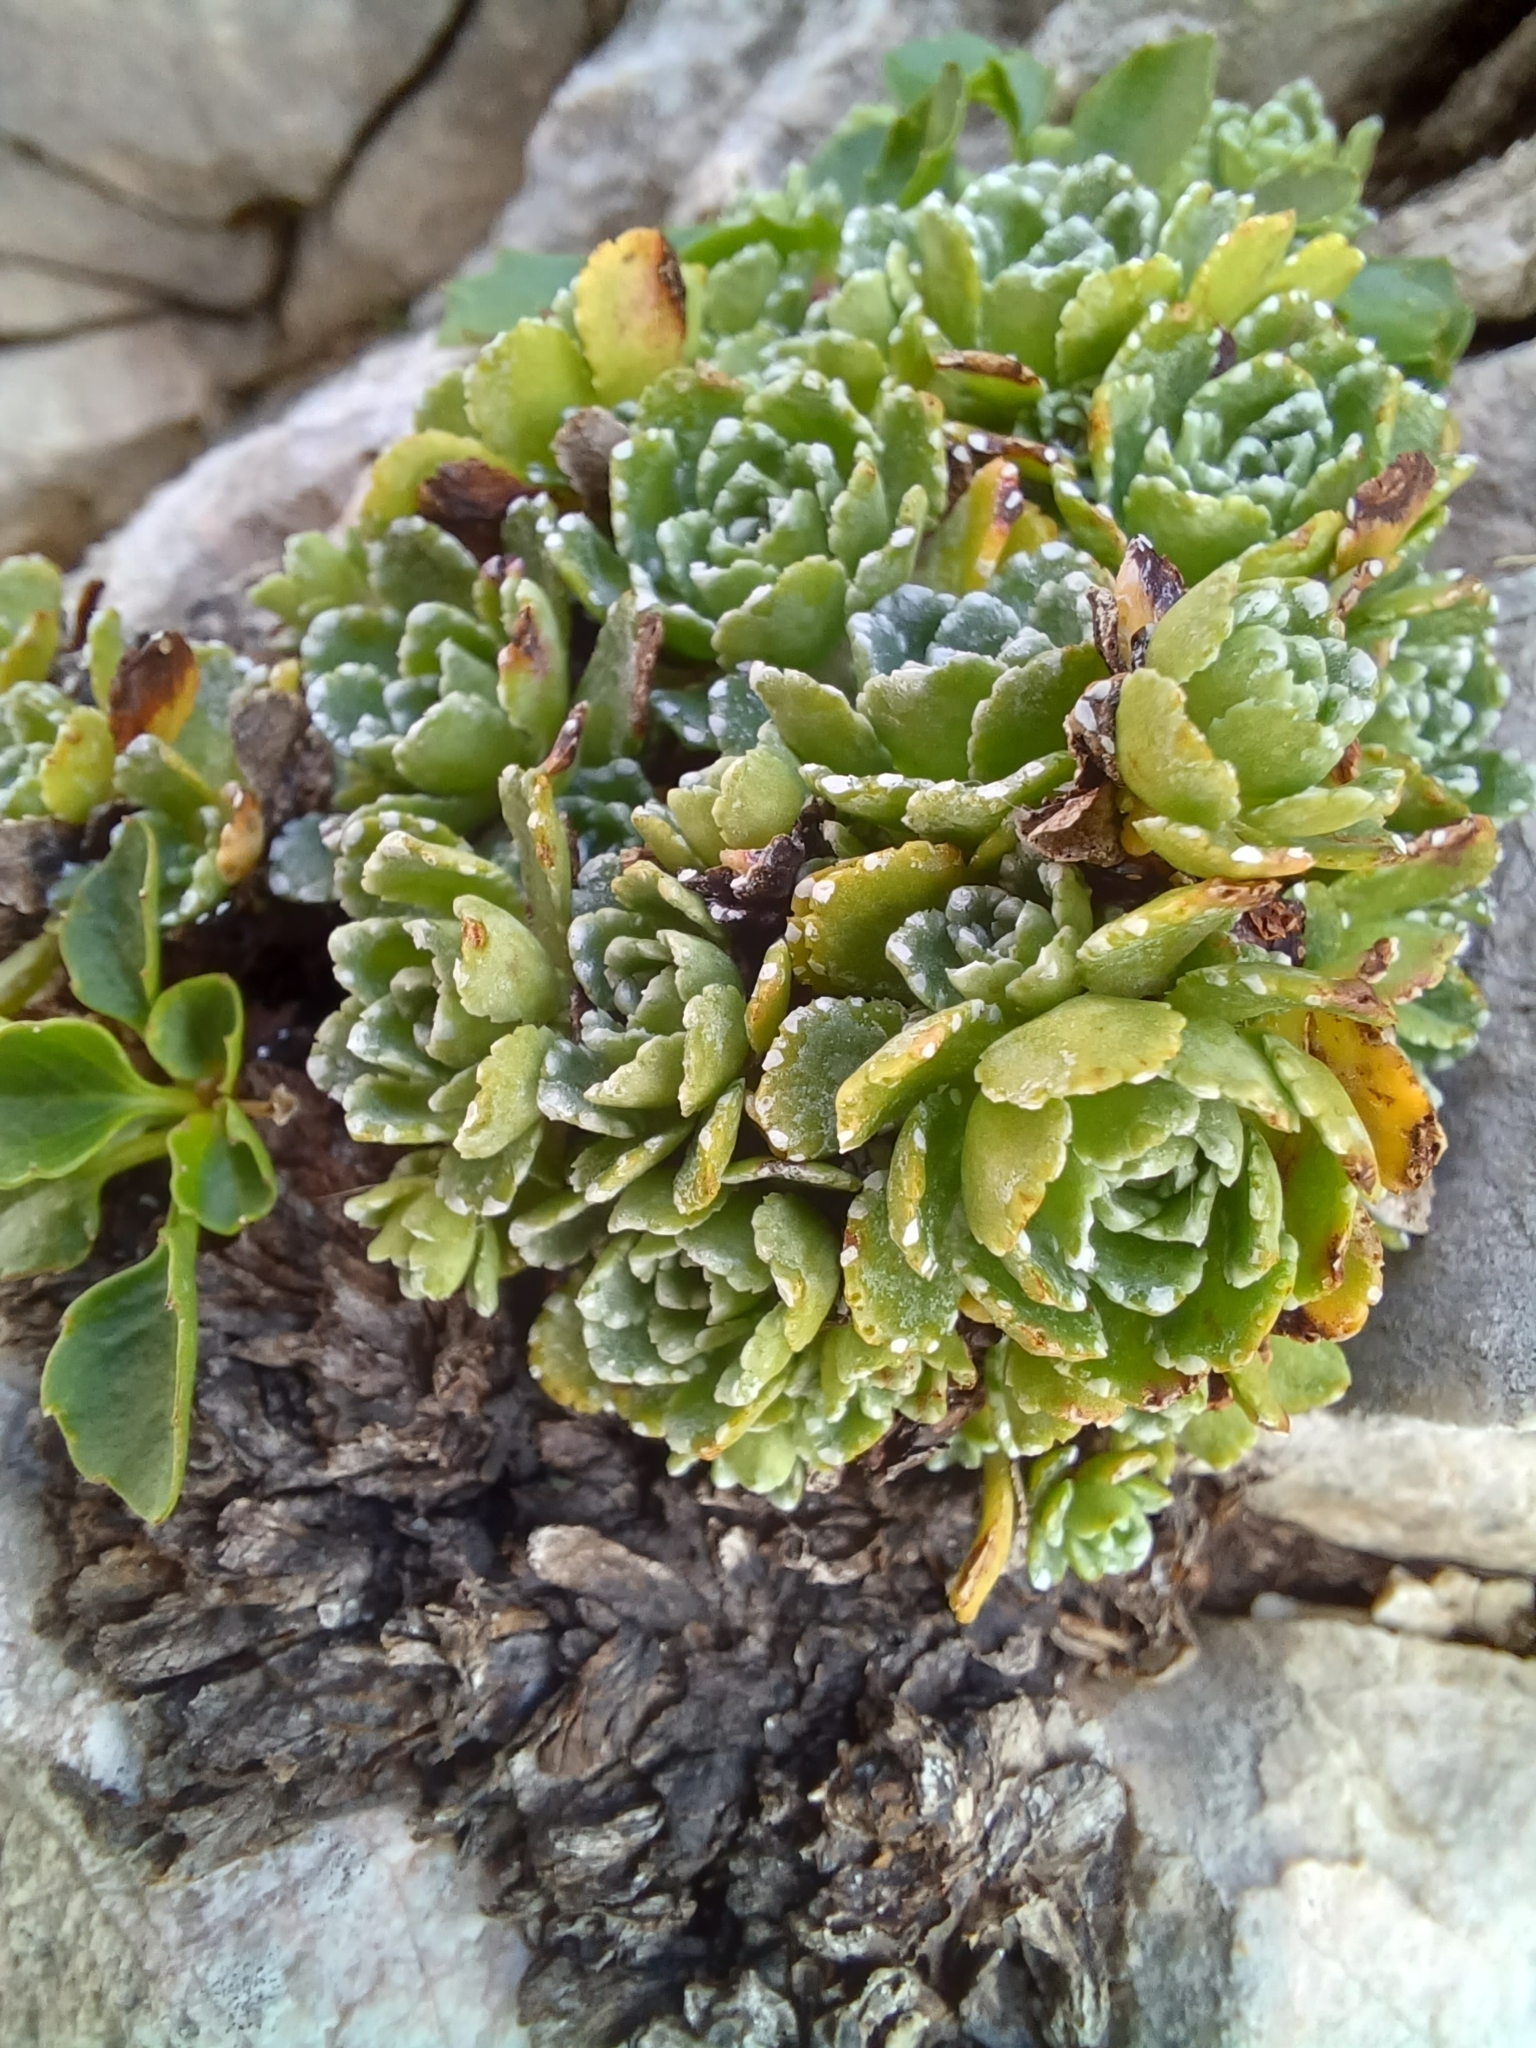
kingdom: Plantae
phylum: Tracheophyta
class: Magnoliopsida
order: Saxifragales
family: Saxifragaceae
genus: Saxifraga
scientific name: Saxifraga paniculata
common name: Livelong saxifrage
